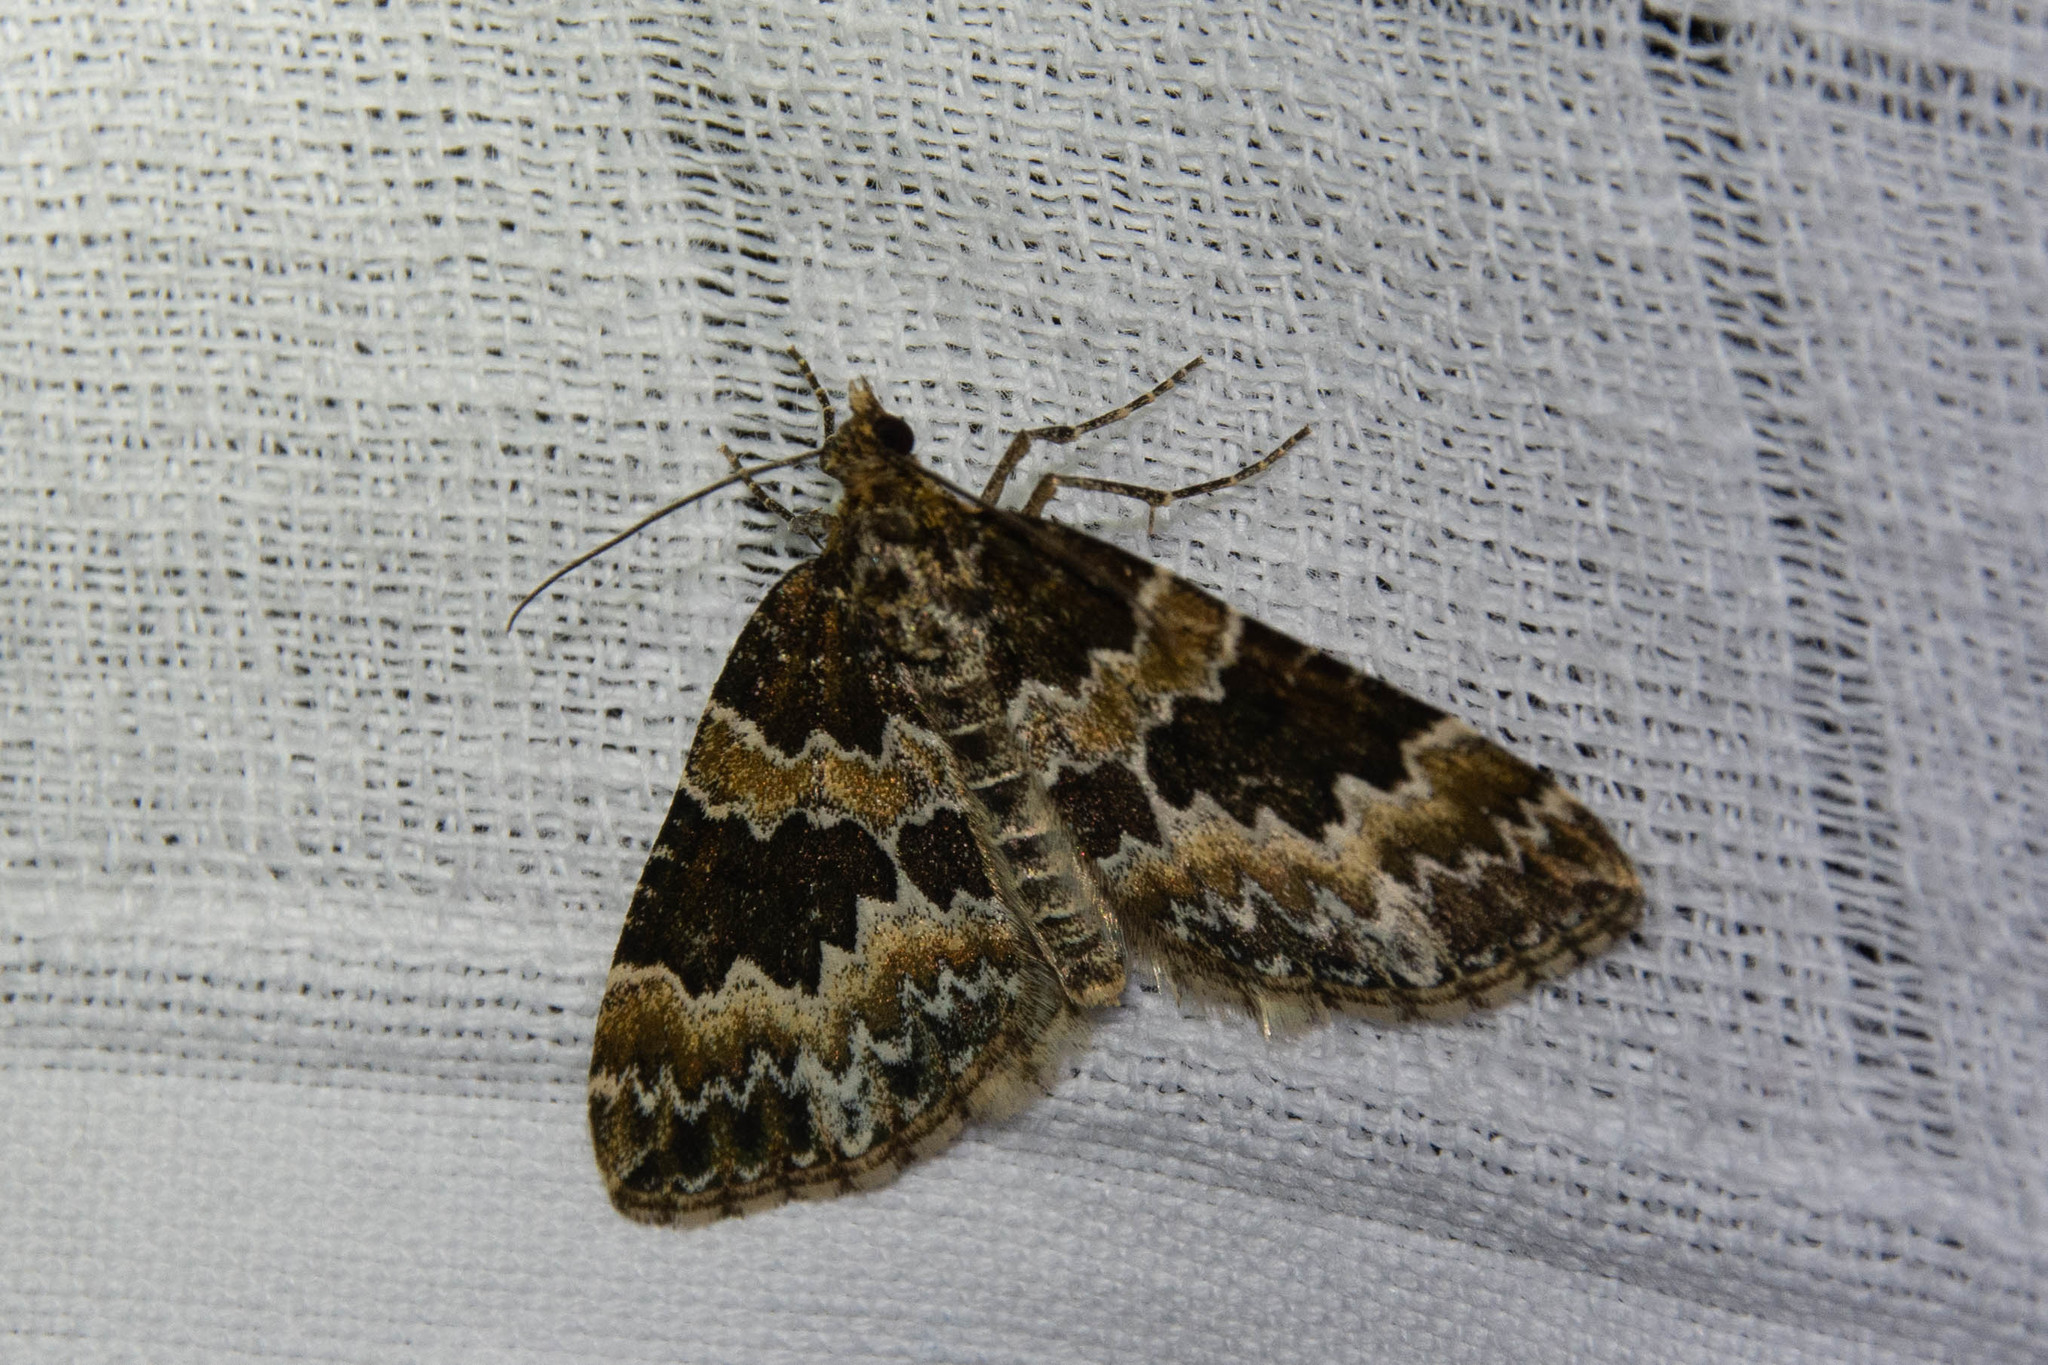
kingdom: Animalia
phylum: Arthropoda
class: Insecta
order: Lepidoptera
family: Geometridae
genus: Electrophaes
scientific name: Electrophaes corylata
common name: Broken-barred carpet
